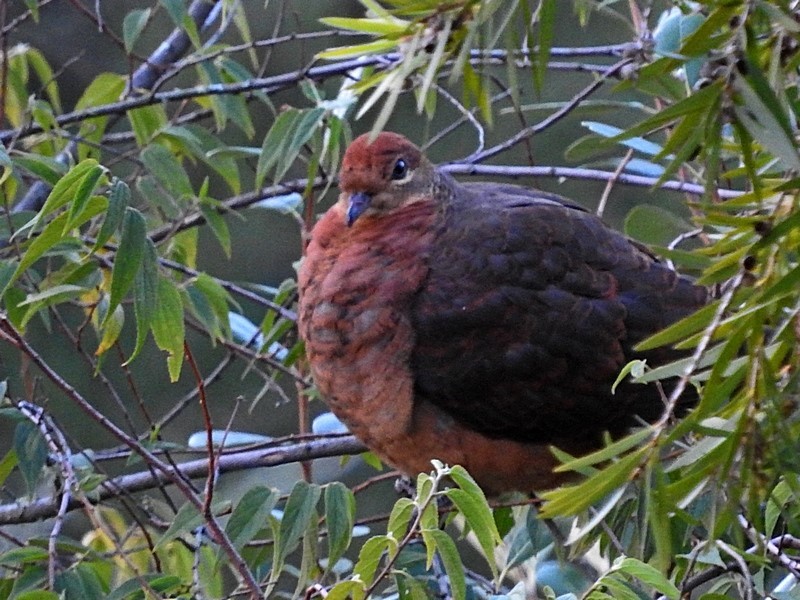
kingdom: Animalia
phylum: Chordata
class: Aves
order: Columbiformes
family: Columbidae
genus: Macropygia
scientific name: Macropygia phasianella
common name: Brown cuckoo-dove
